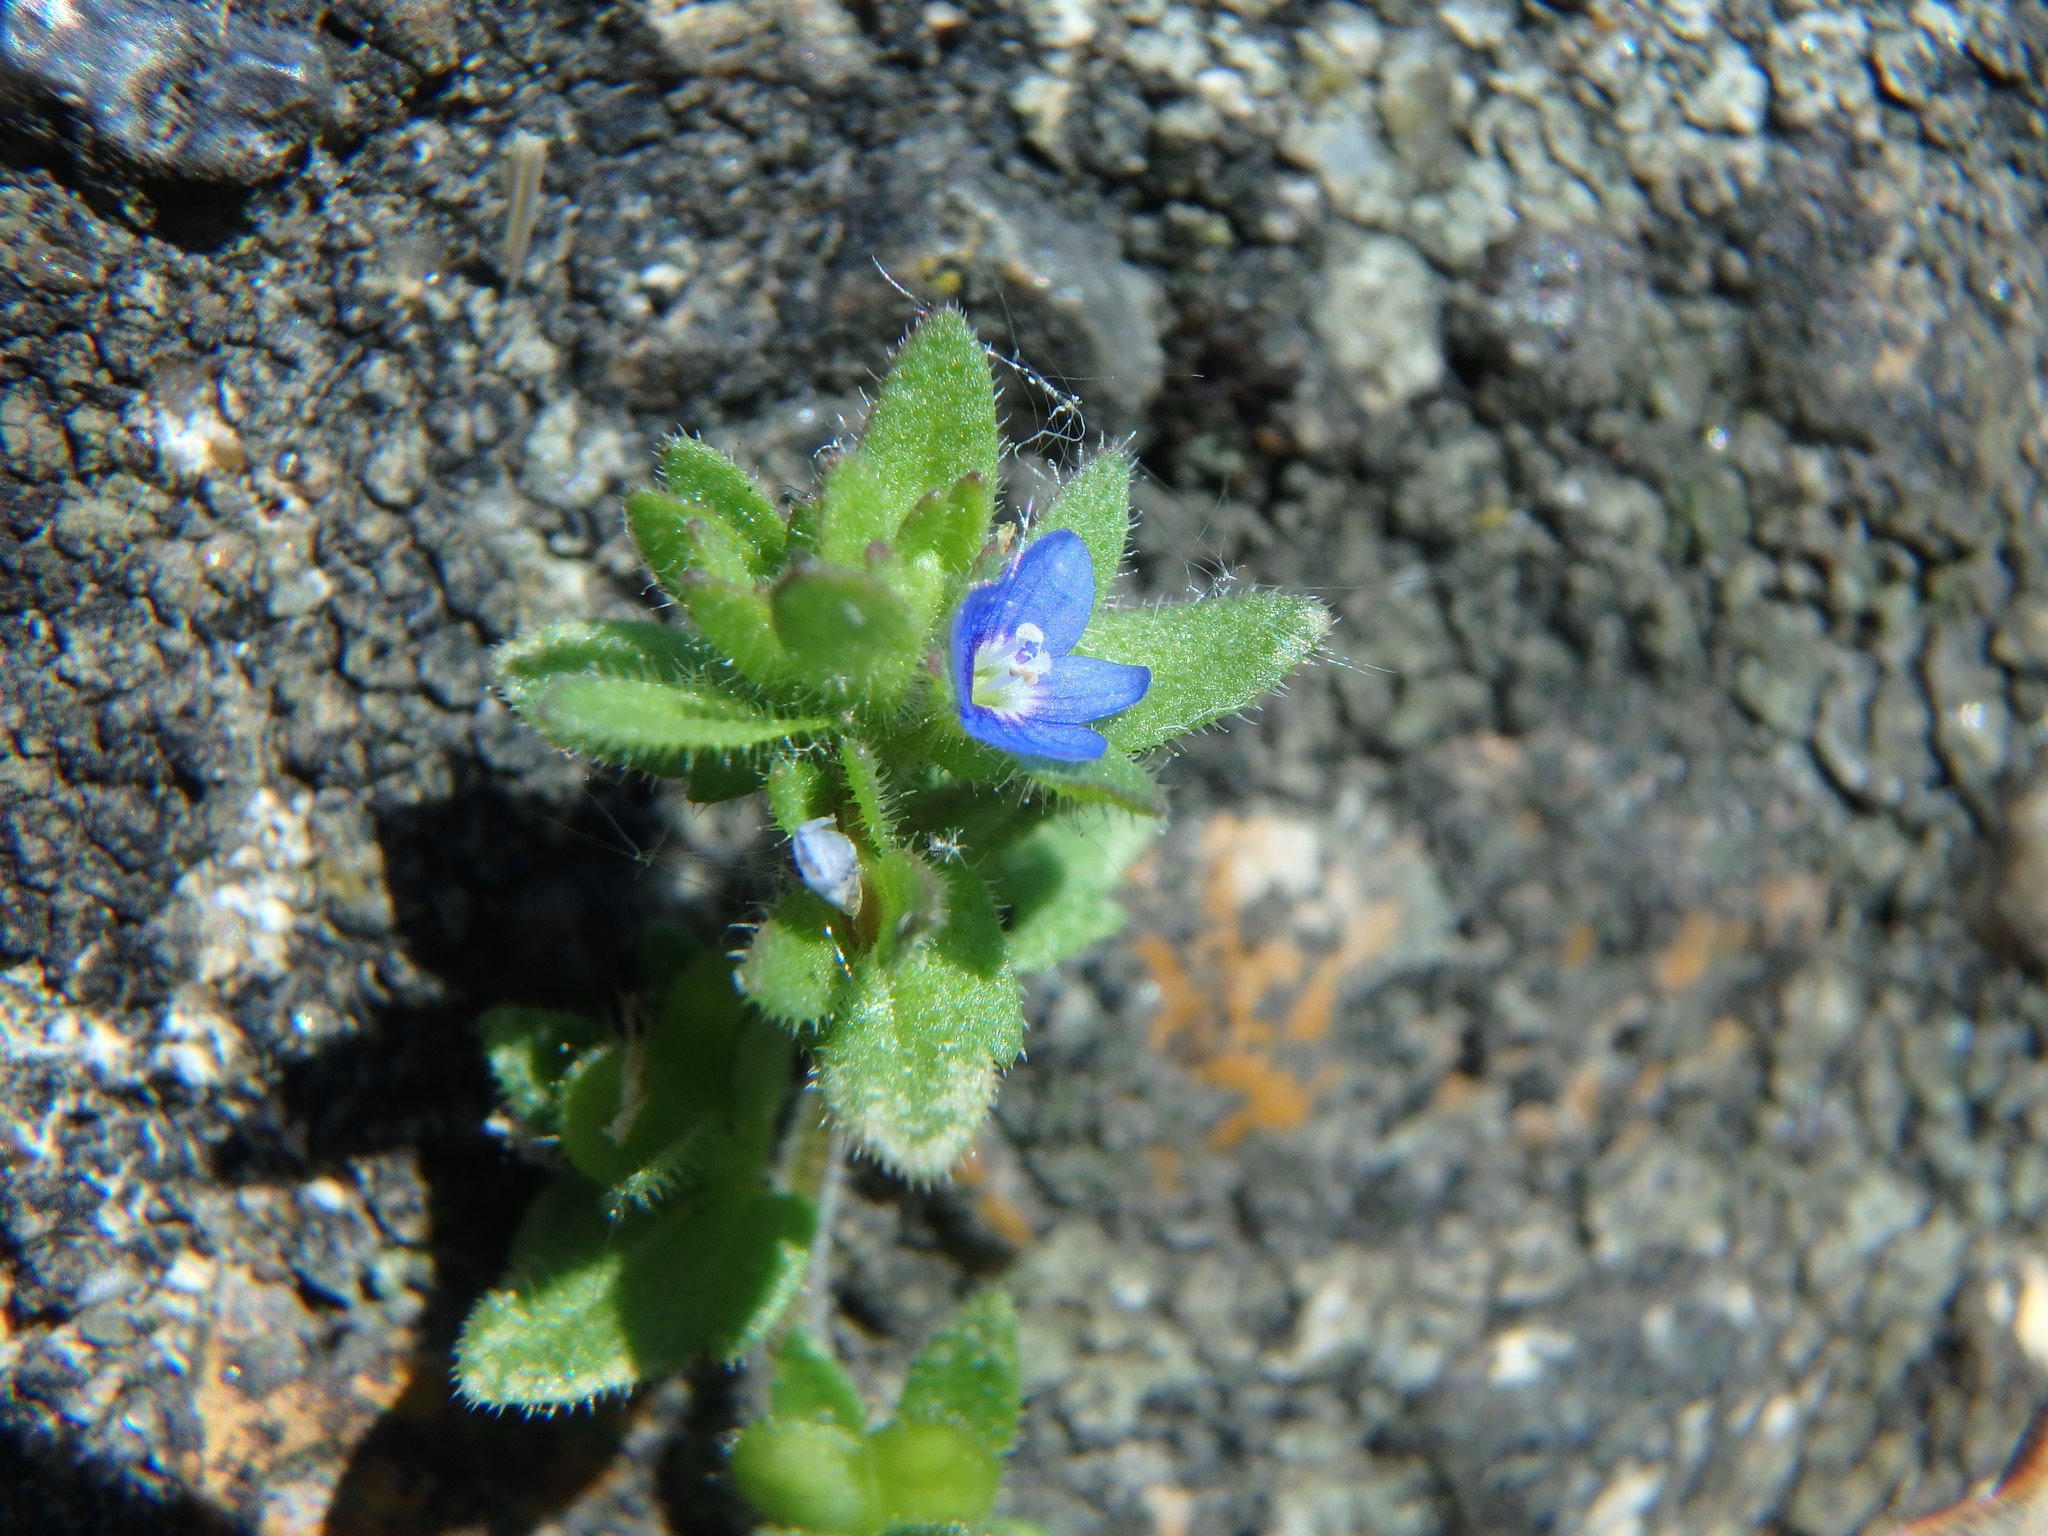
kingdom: Plantae
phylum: Tracheophyta
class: Magnoliopsida
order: Lamiales
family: Plantaginaceae
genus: Veronica
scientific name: Veronica arvensis
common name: Corn speedwell
